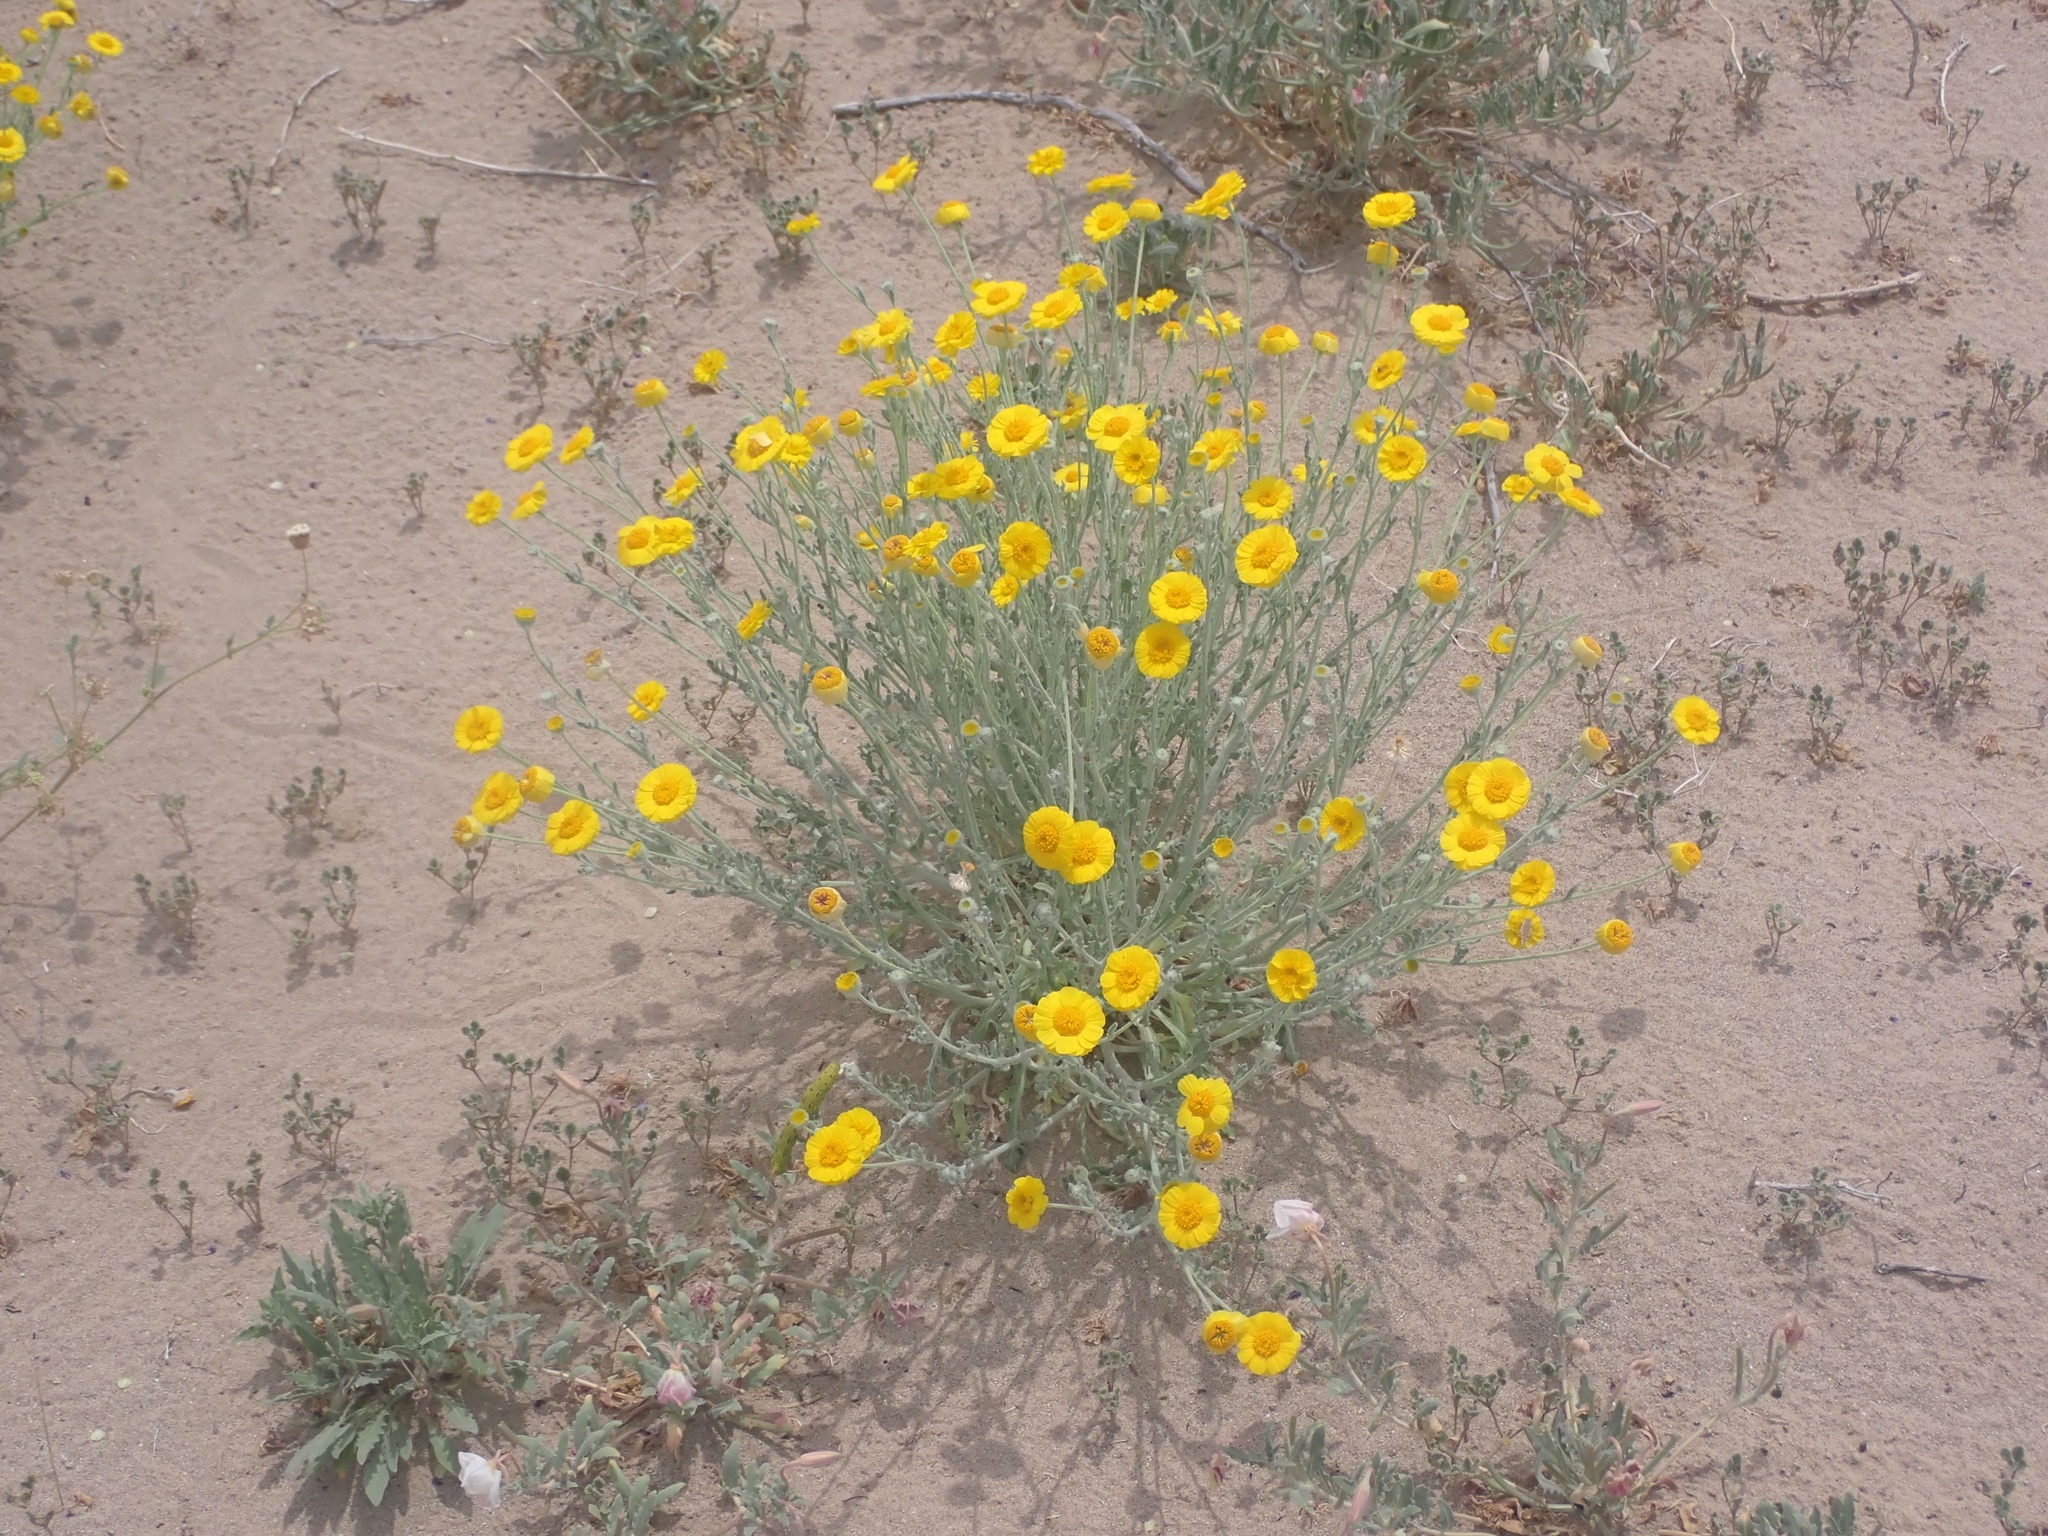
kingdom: Plantae
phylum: Tracheophyta
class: Magnoliopsida
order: Asterales
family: Asteraceae
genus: Baileya
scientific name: Baileya pleniradiata
